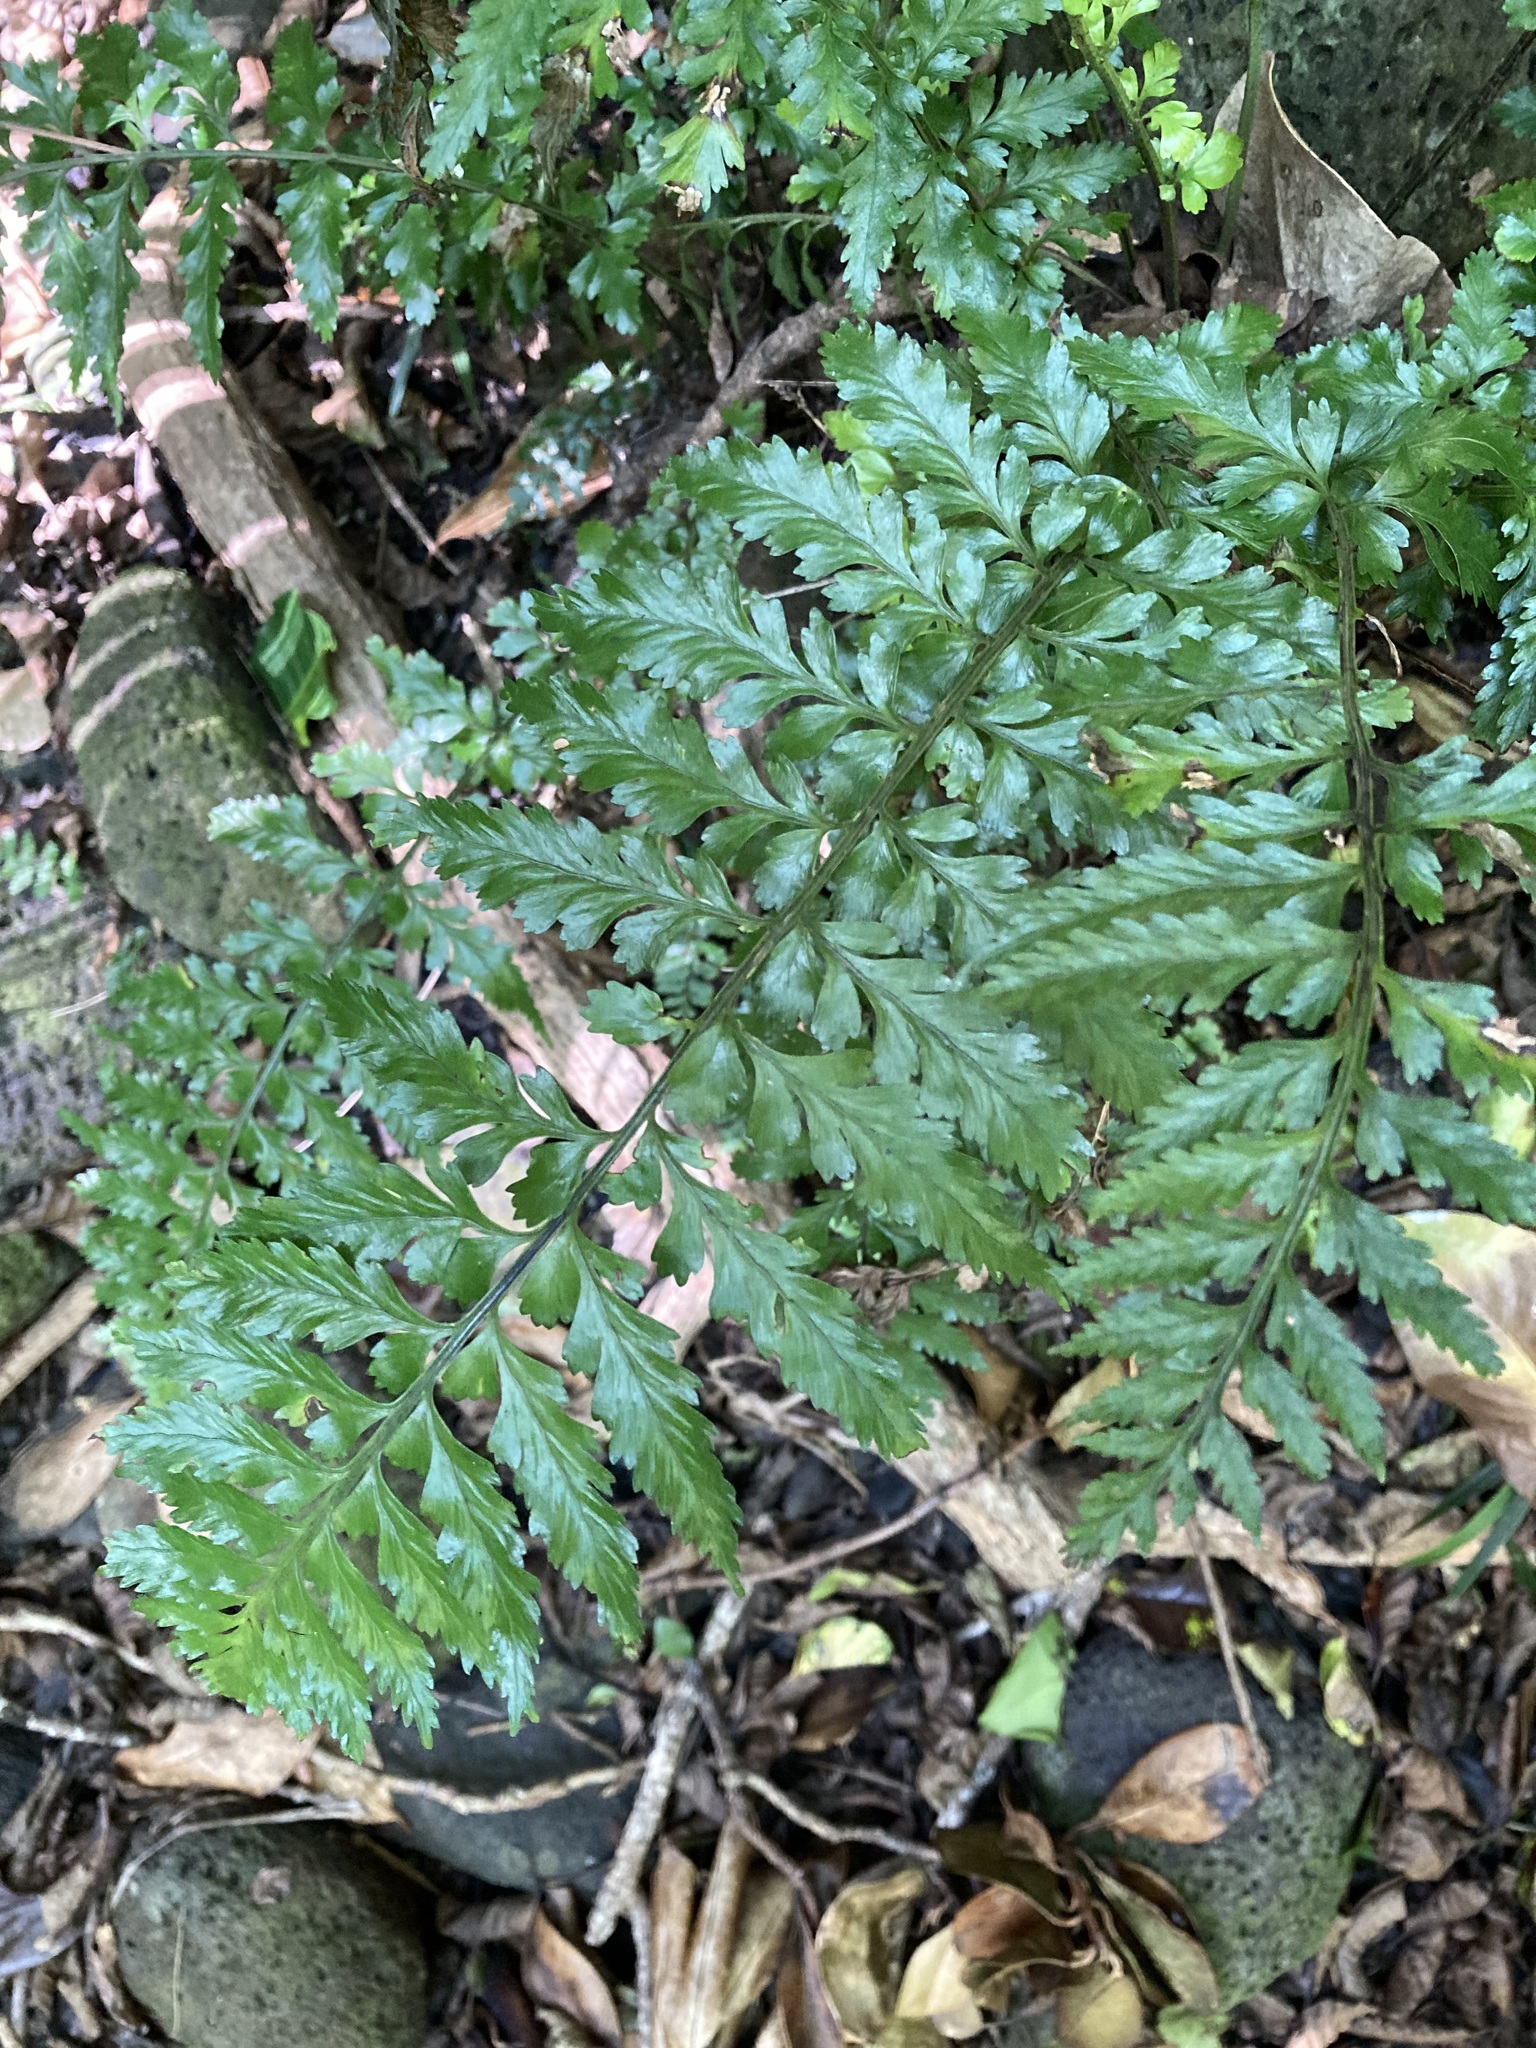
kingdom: Plantae
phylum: Tracheophyta
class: Polypodiopsida
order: Polypodiales
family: Aspleniaceae
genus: Asplenium
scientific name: Asplenium lamprophyllum
